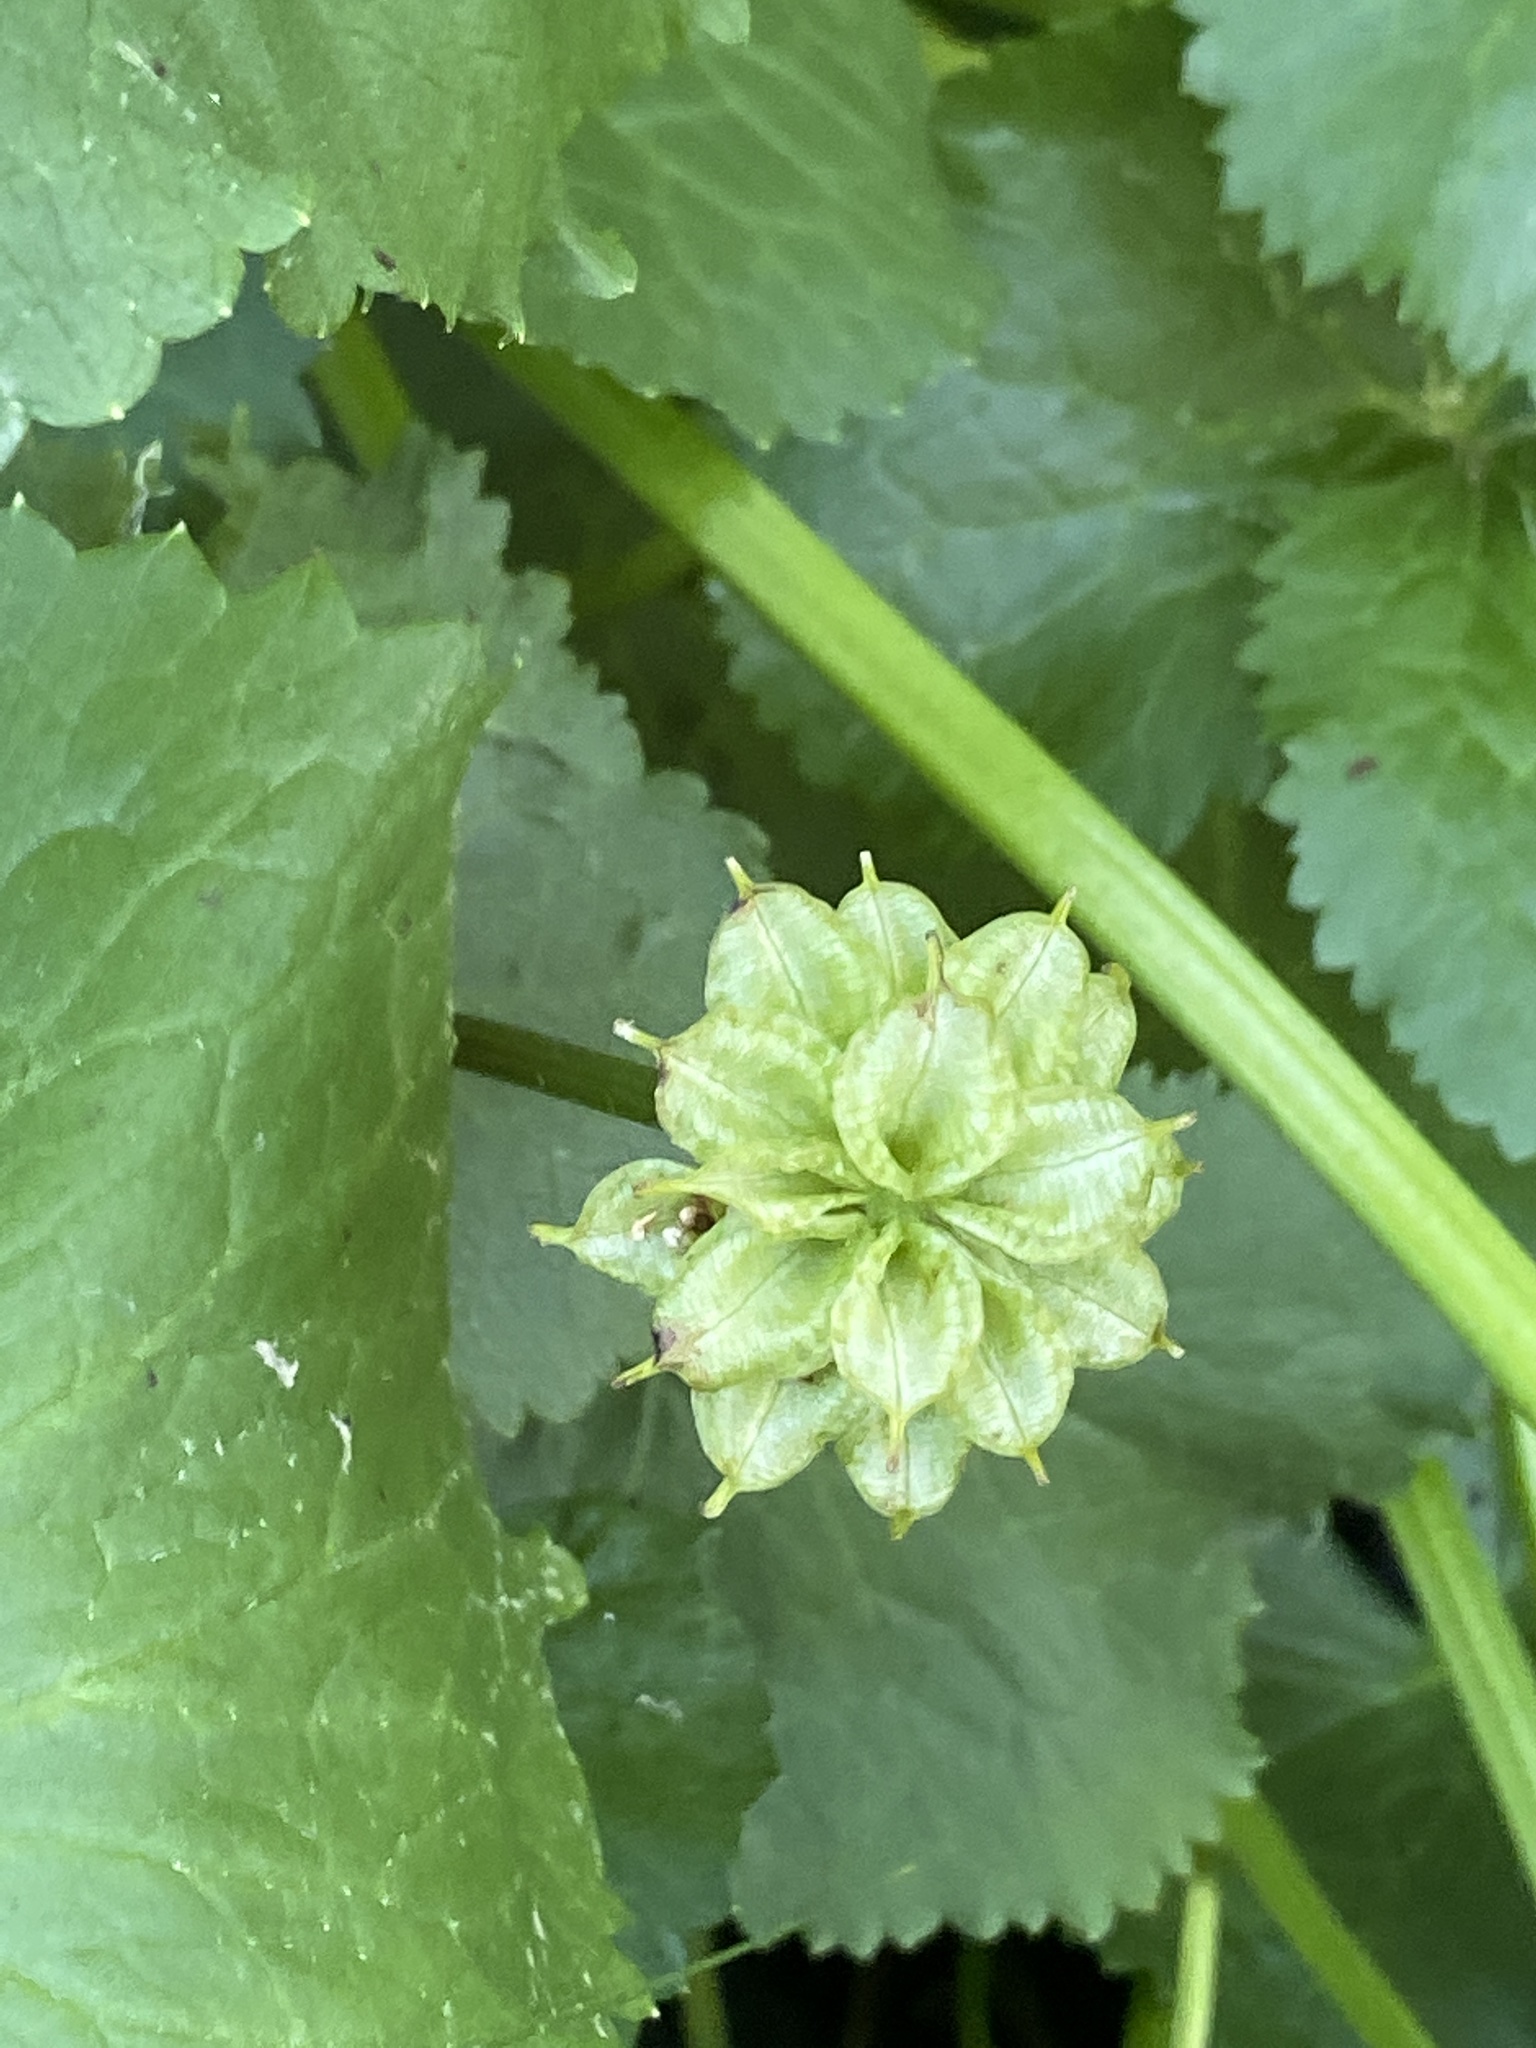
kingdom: Plantae
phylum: Tracheophyta
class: Magnoliopsida
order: Ranunculales
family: Ranunculaceae
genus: Caltha
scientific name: Caltha palustris
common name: Marsh marigold
